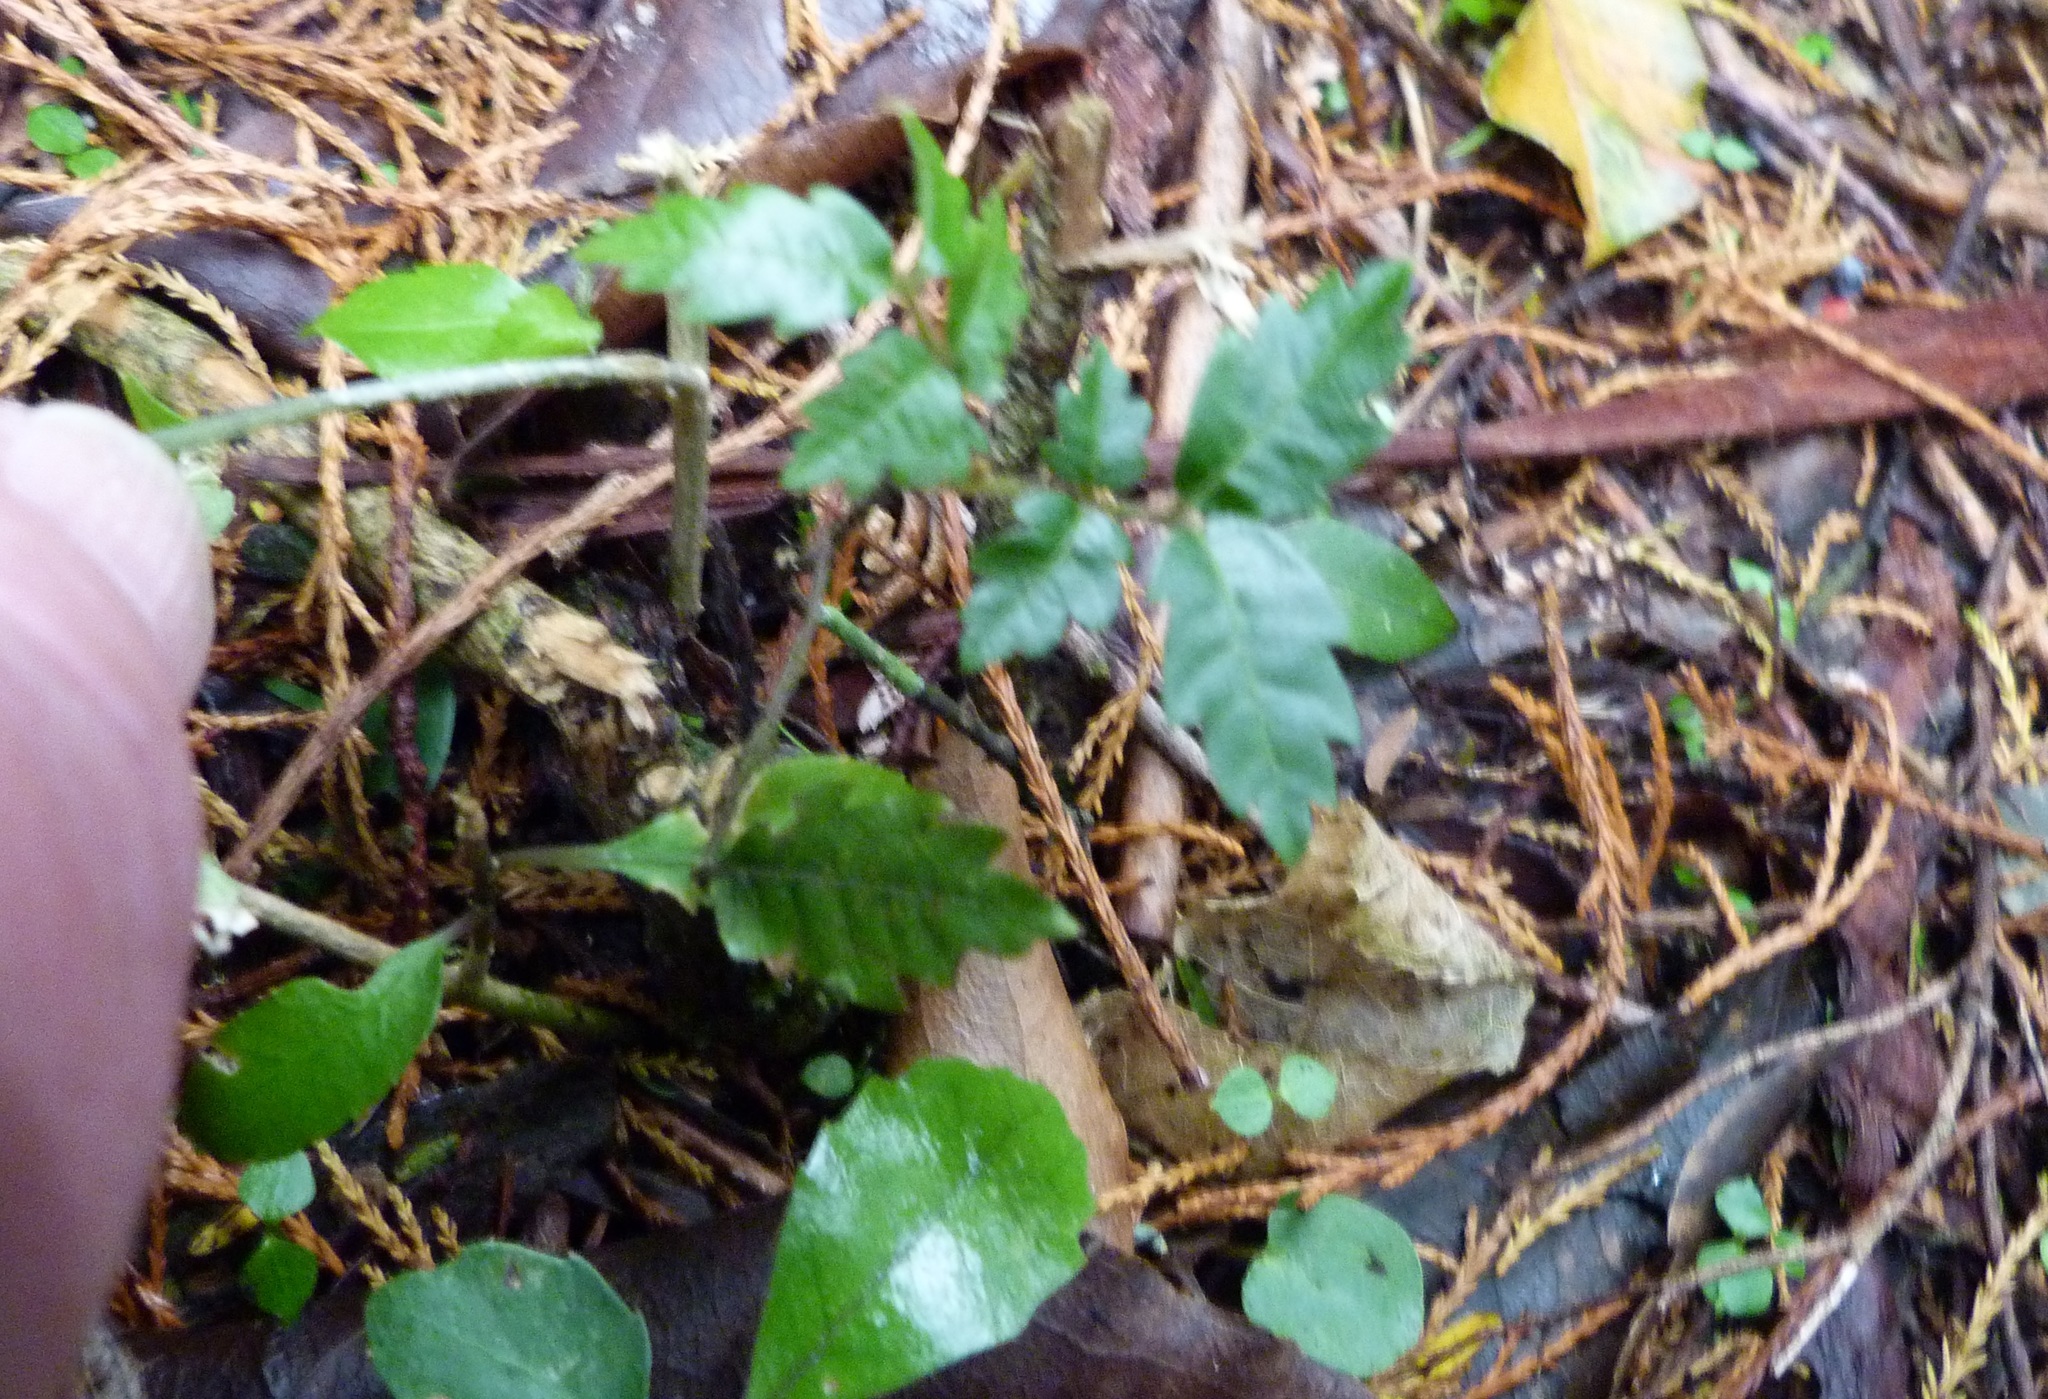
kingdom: Plantae
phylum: Tracheophyta
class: Magnoliopsida
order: Sapindales
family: Sapindaceae
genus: Alectryon
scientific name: Alectryon excelsus
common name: Three kings titoki
